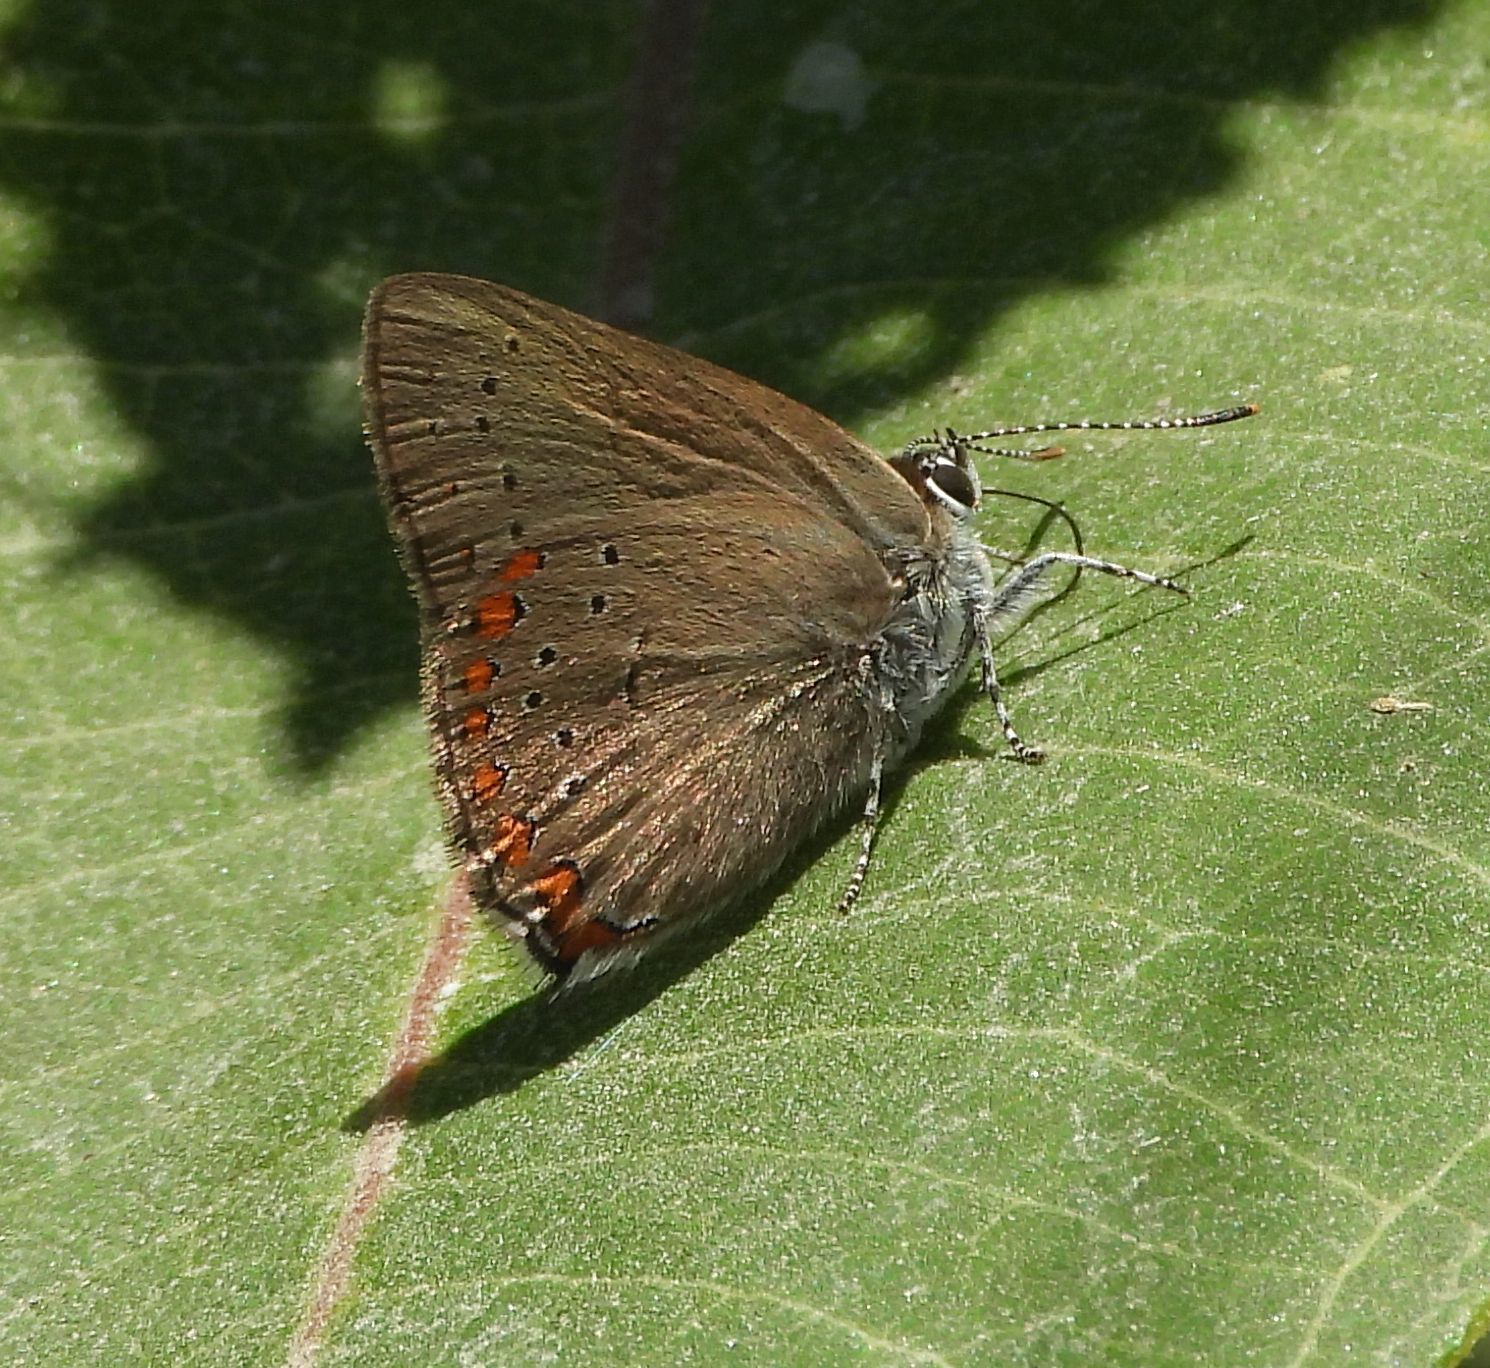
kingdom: Animalia
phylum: Arthropoda
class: Insecta
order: Lepidoptera
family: Lycaenidae
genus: Harkenclenus
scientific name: Harkenclenus titus
